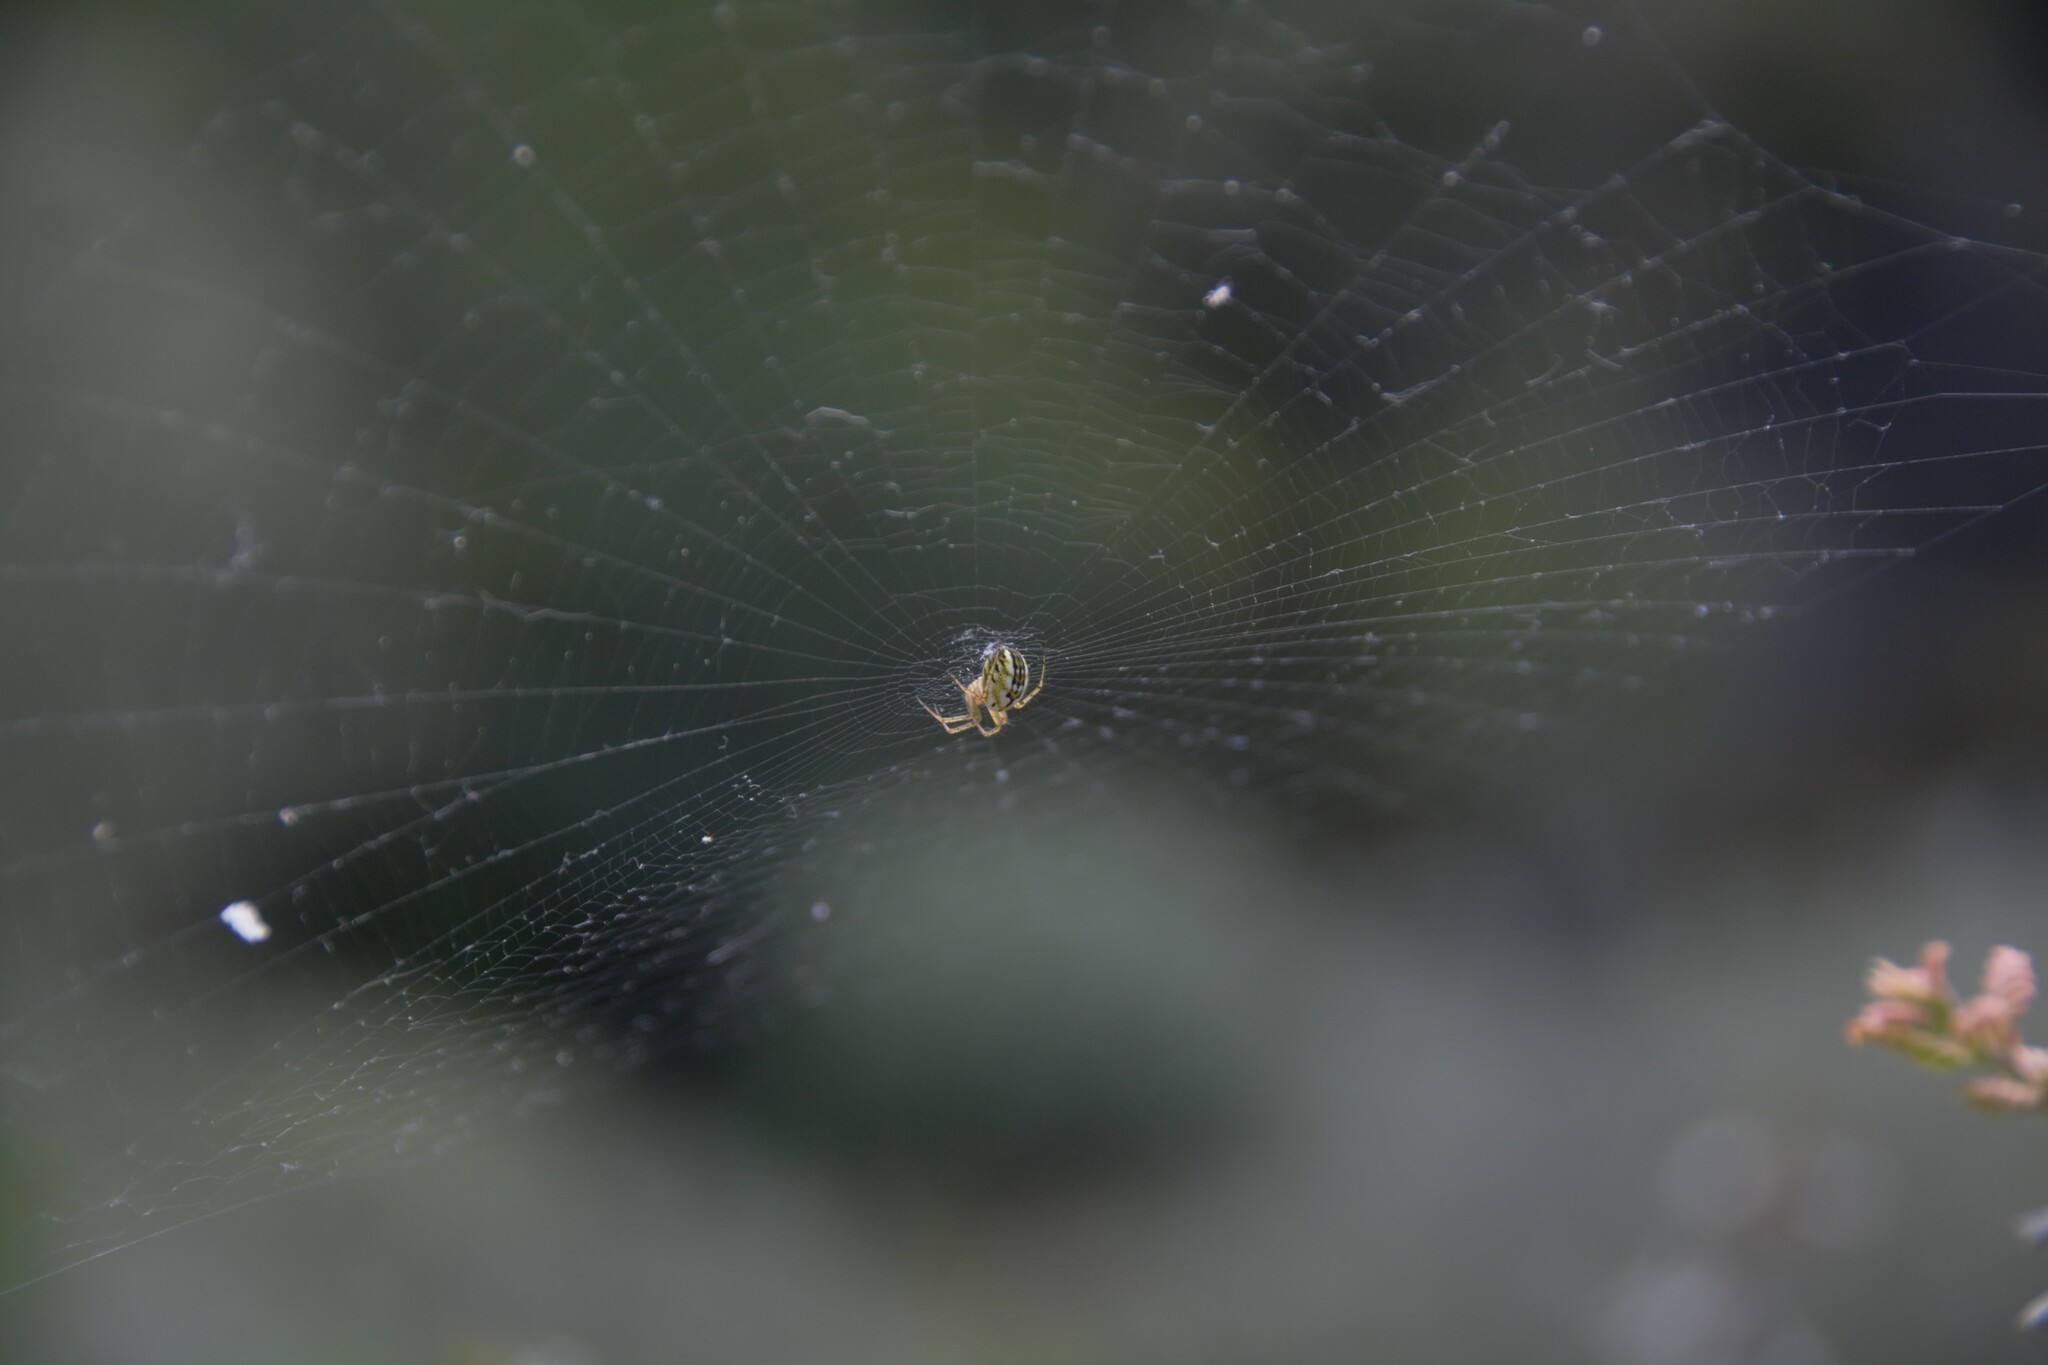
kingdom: Animalia
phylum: Arthropoda
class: Arachnida
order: Araneae
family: Araneidae
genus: Mangora
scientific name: Mangora acalypha
